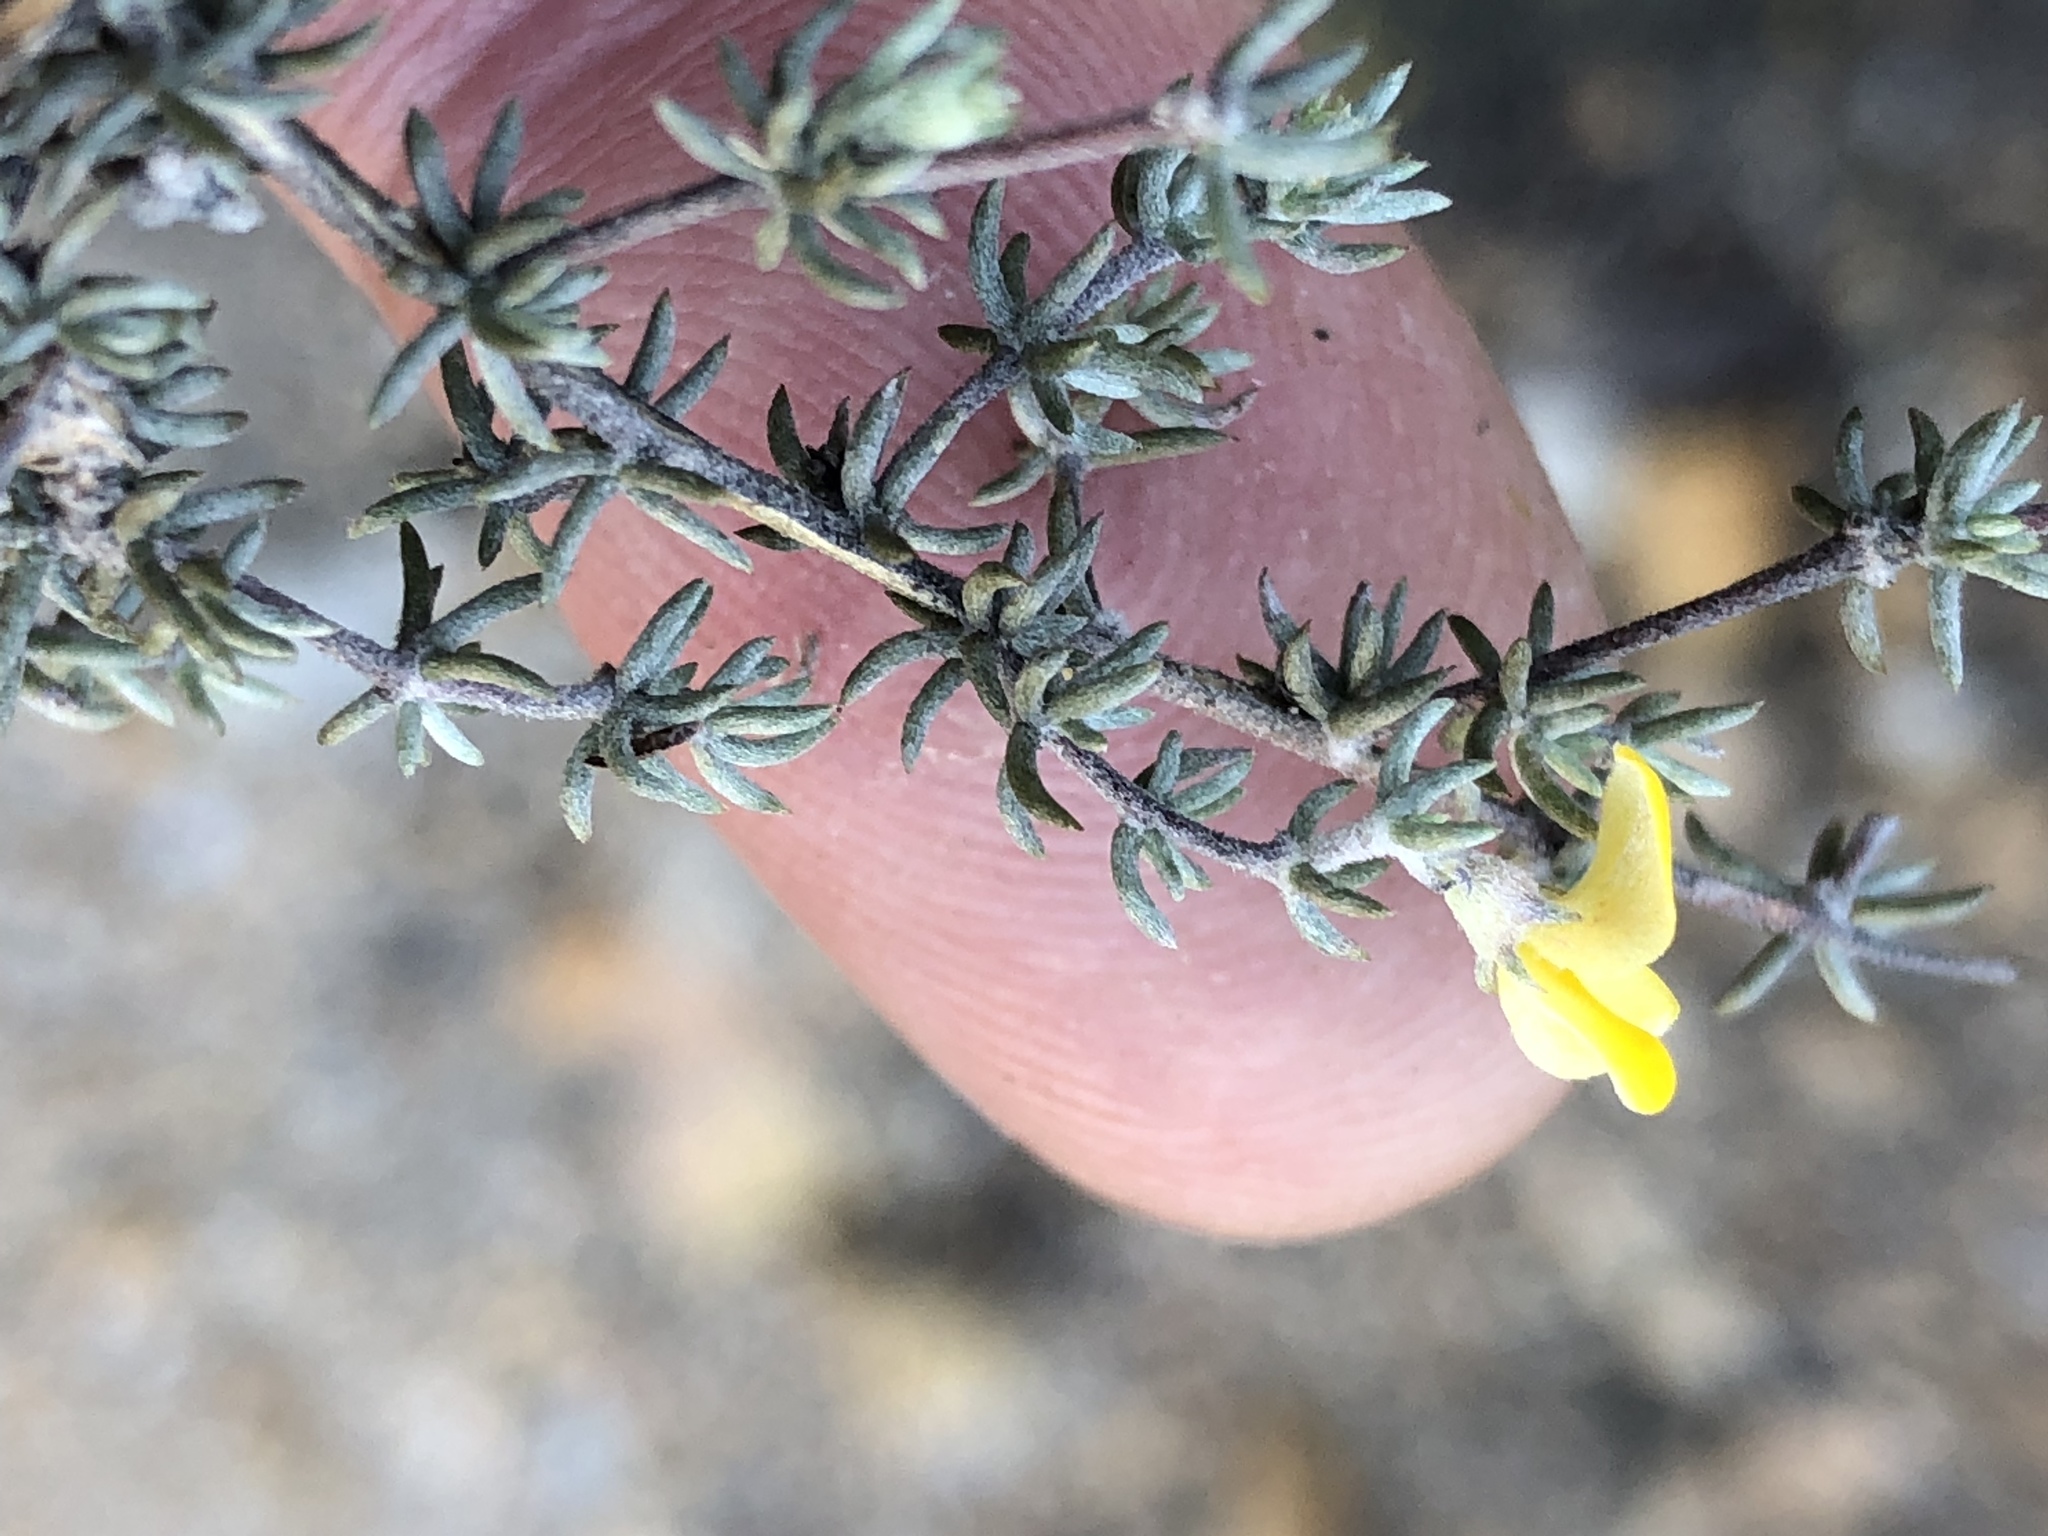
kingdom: Plantae
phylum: Tracheophyta
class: Magnoliopsida
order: Fabales
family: Fabaceae
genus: Aspalathus
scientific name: Aspalathus rubens
